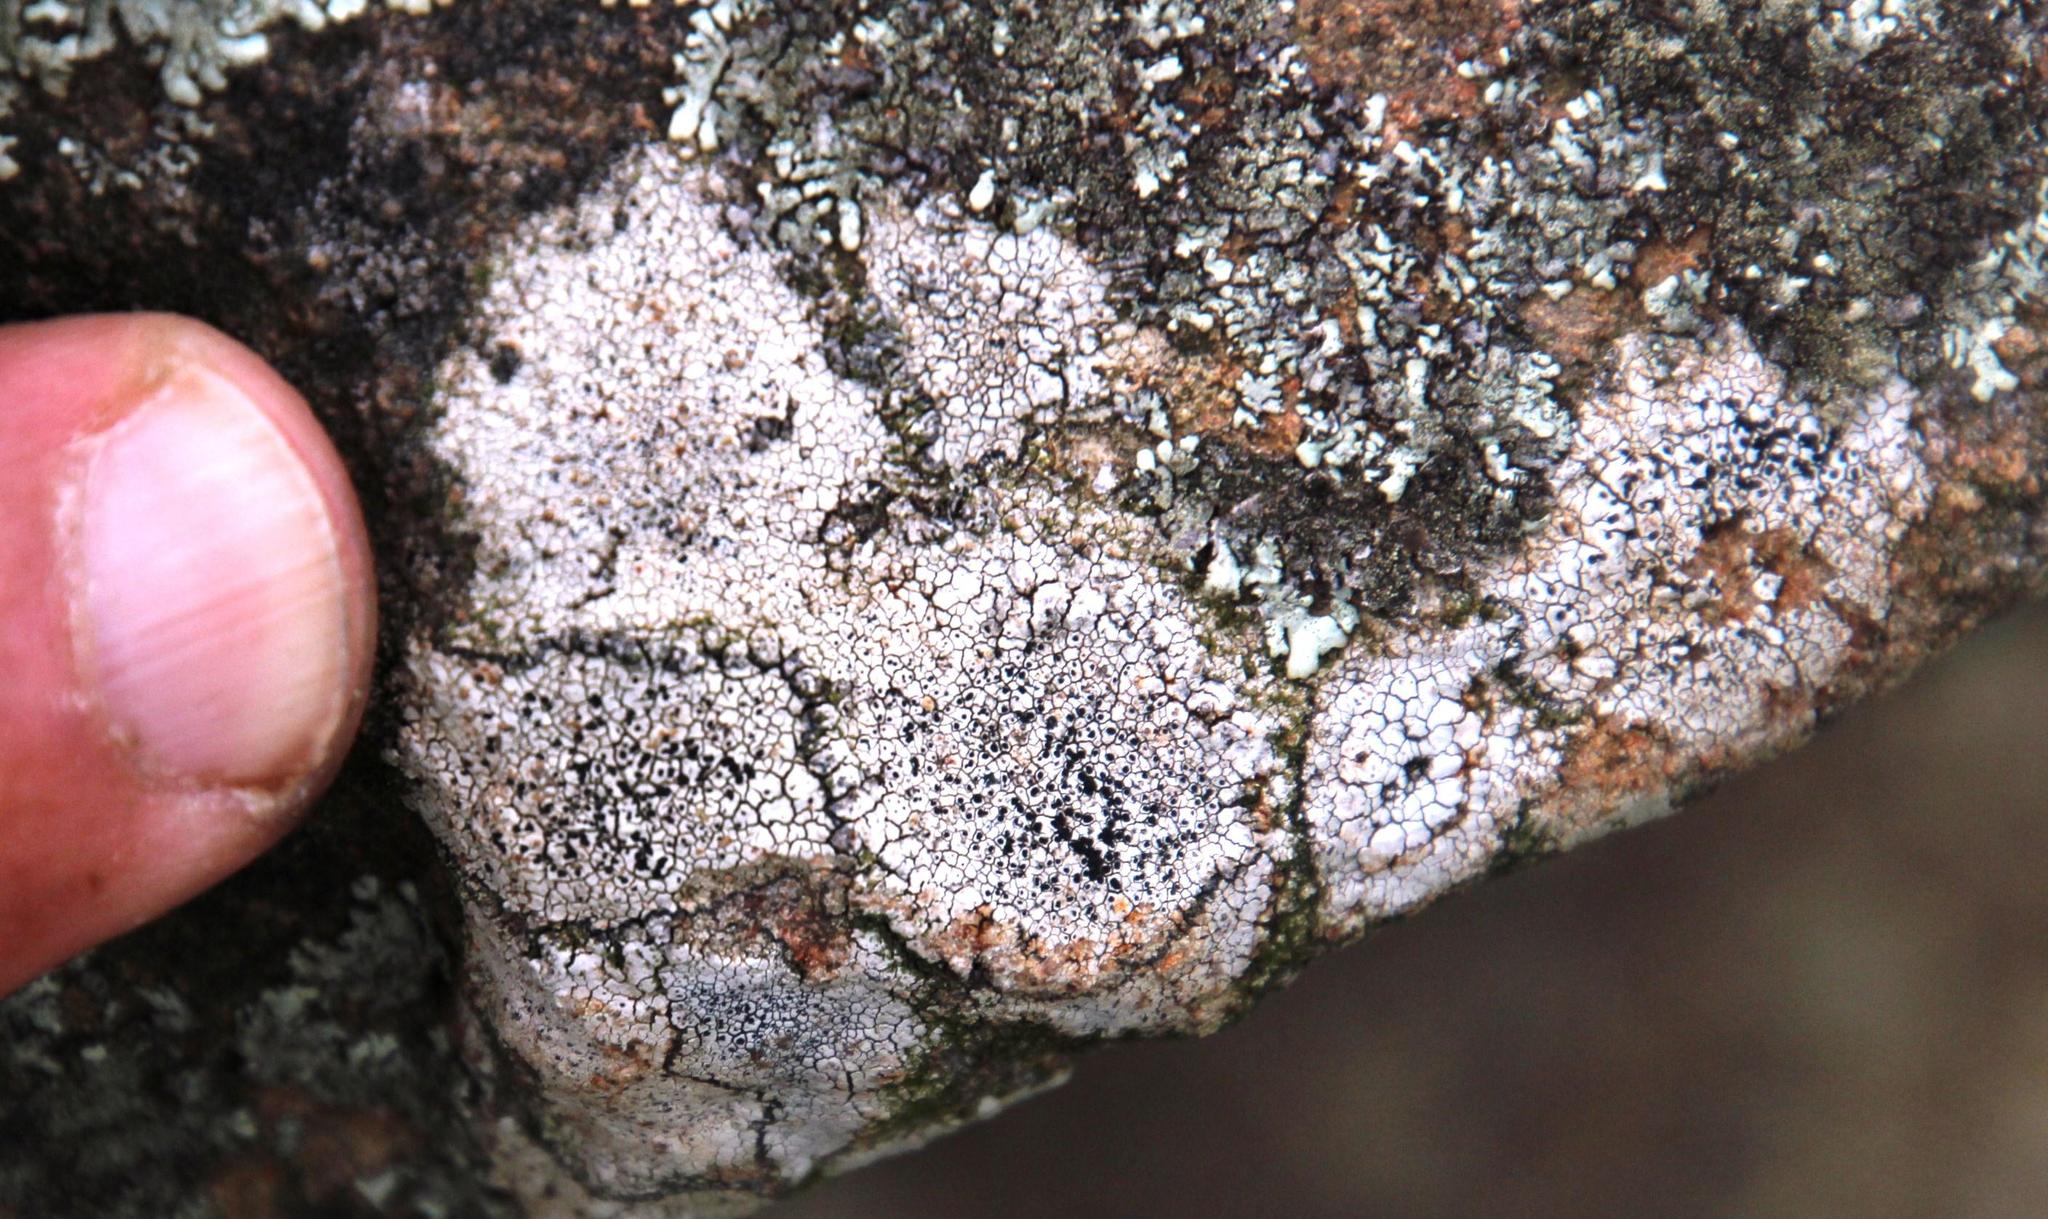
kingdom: Fungi
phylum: Ascomycota
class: Lecanoromycetes
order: Caliciales
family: Caliciaceae
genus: Dimelaena
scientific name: Dimelaena australiensis
